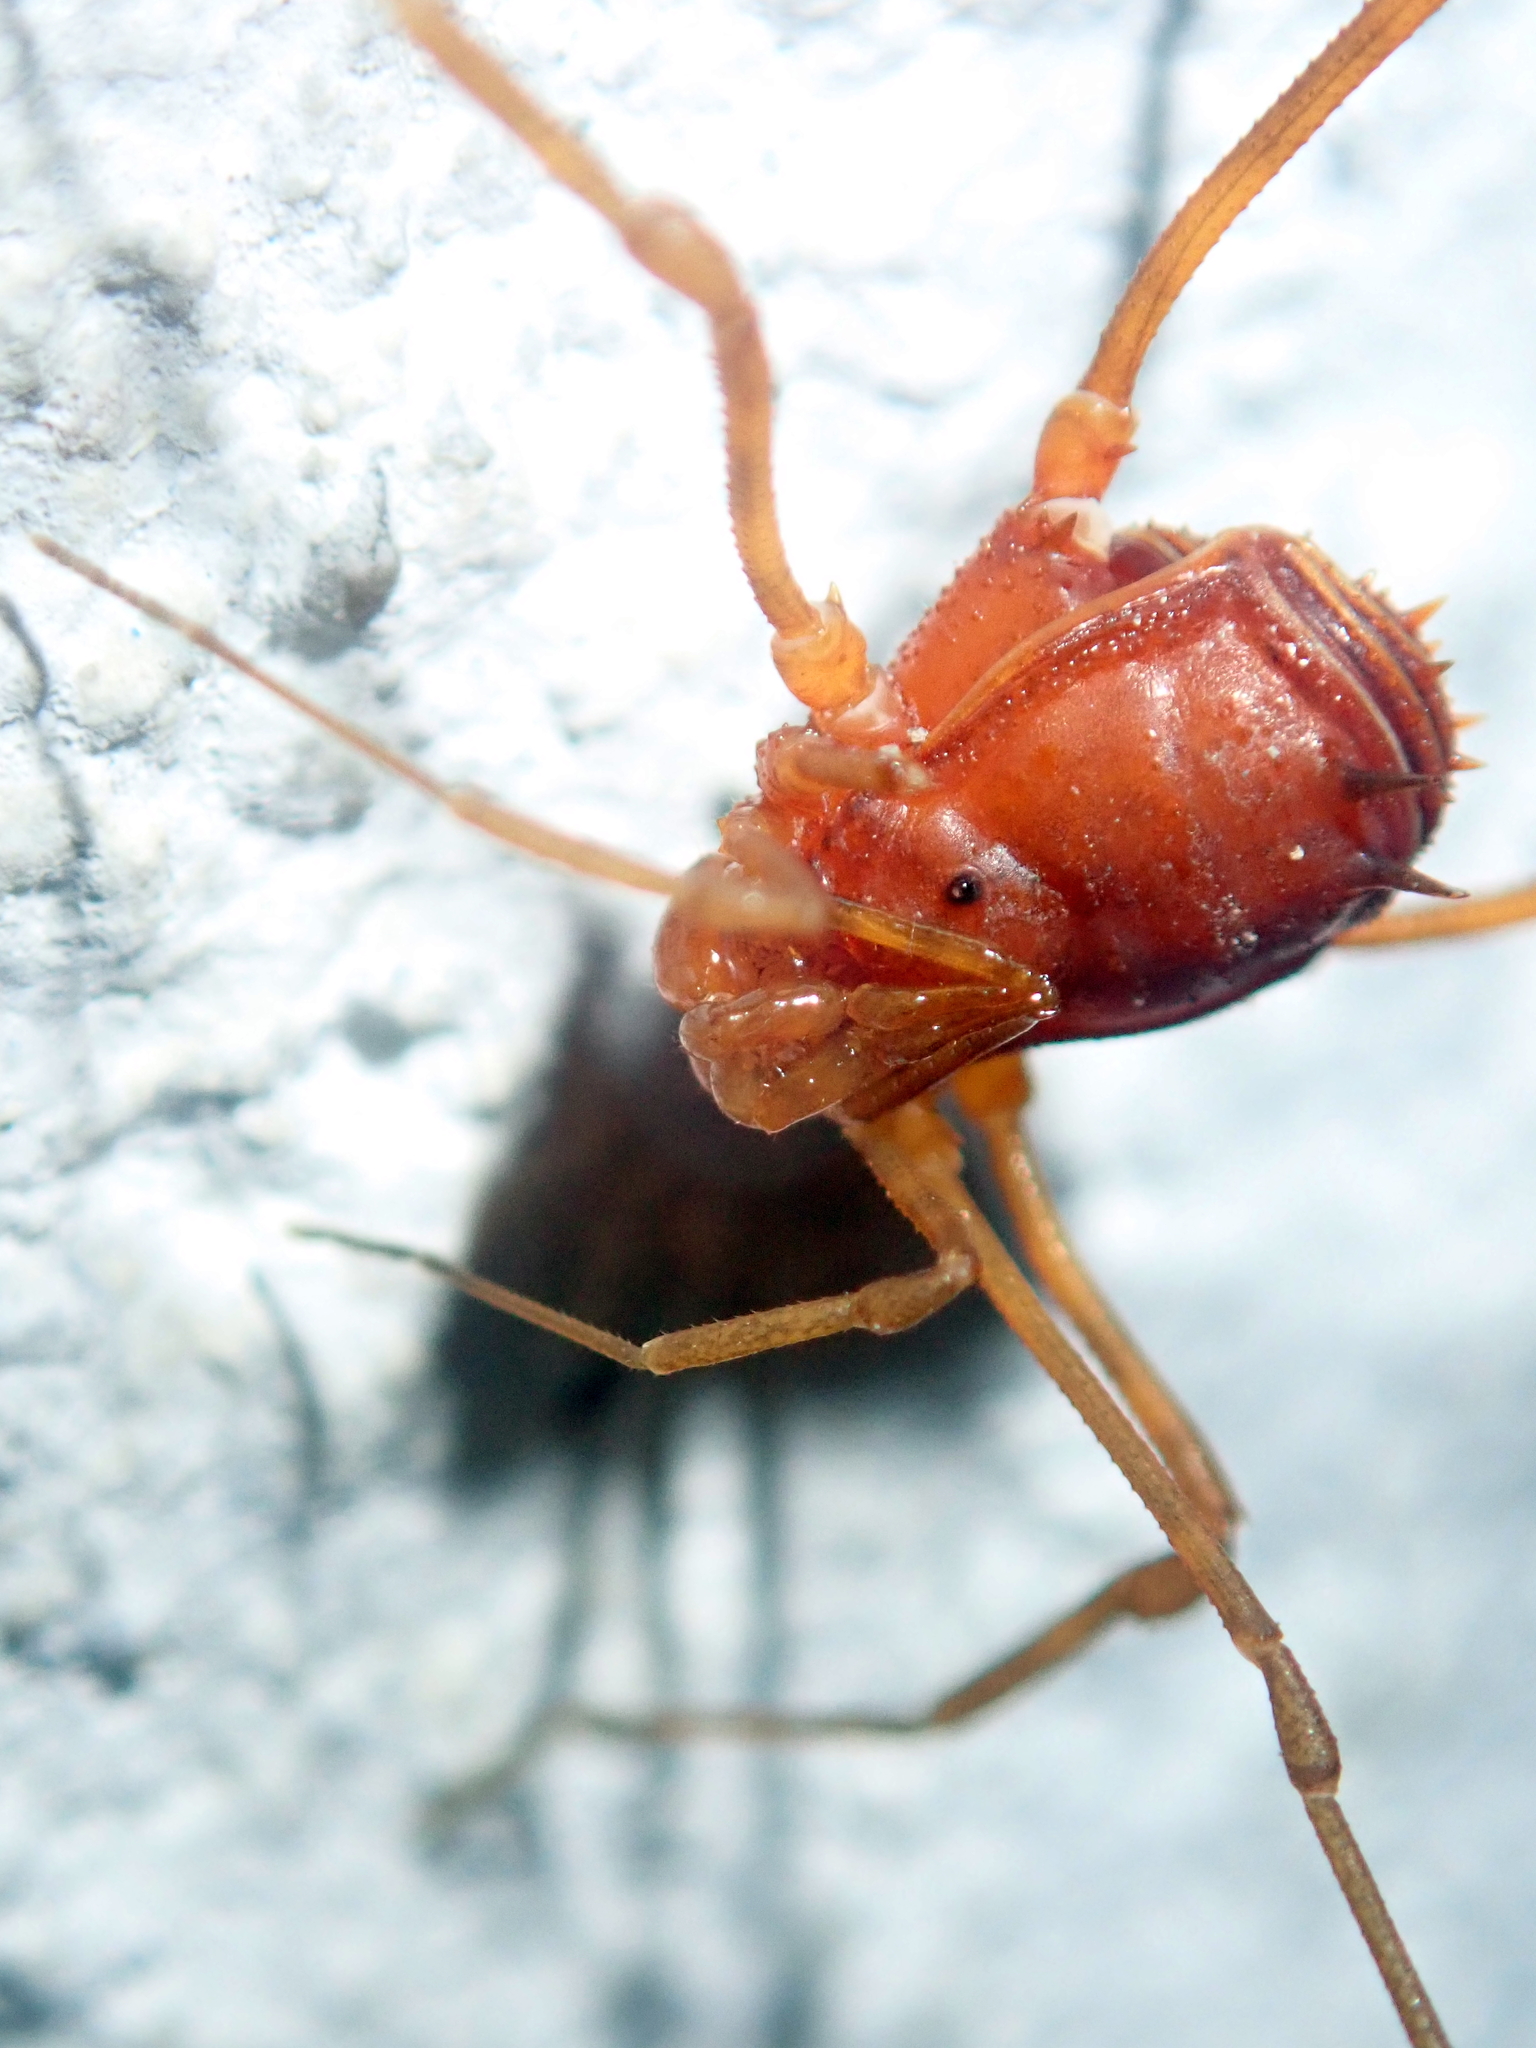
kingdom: Animalia
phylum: Arthropoda
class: Arachnida
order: Opiliones
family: Stygnidae
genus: Stygnus
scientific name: Stygnus polyacanthus
